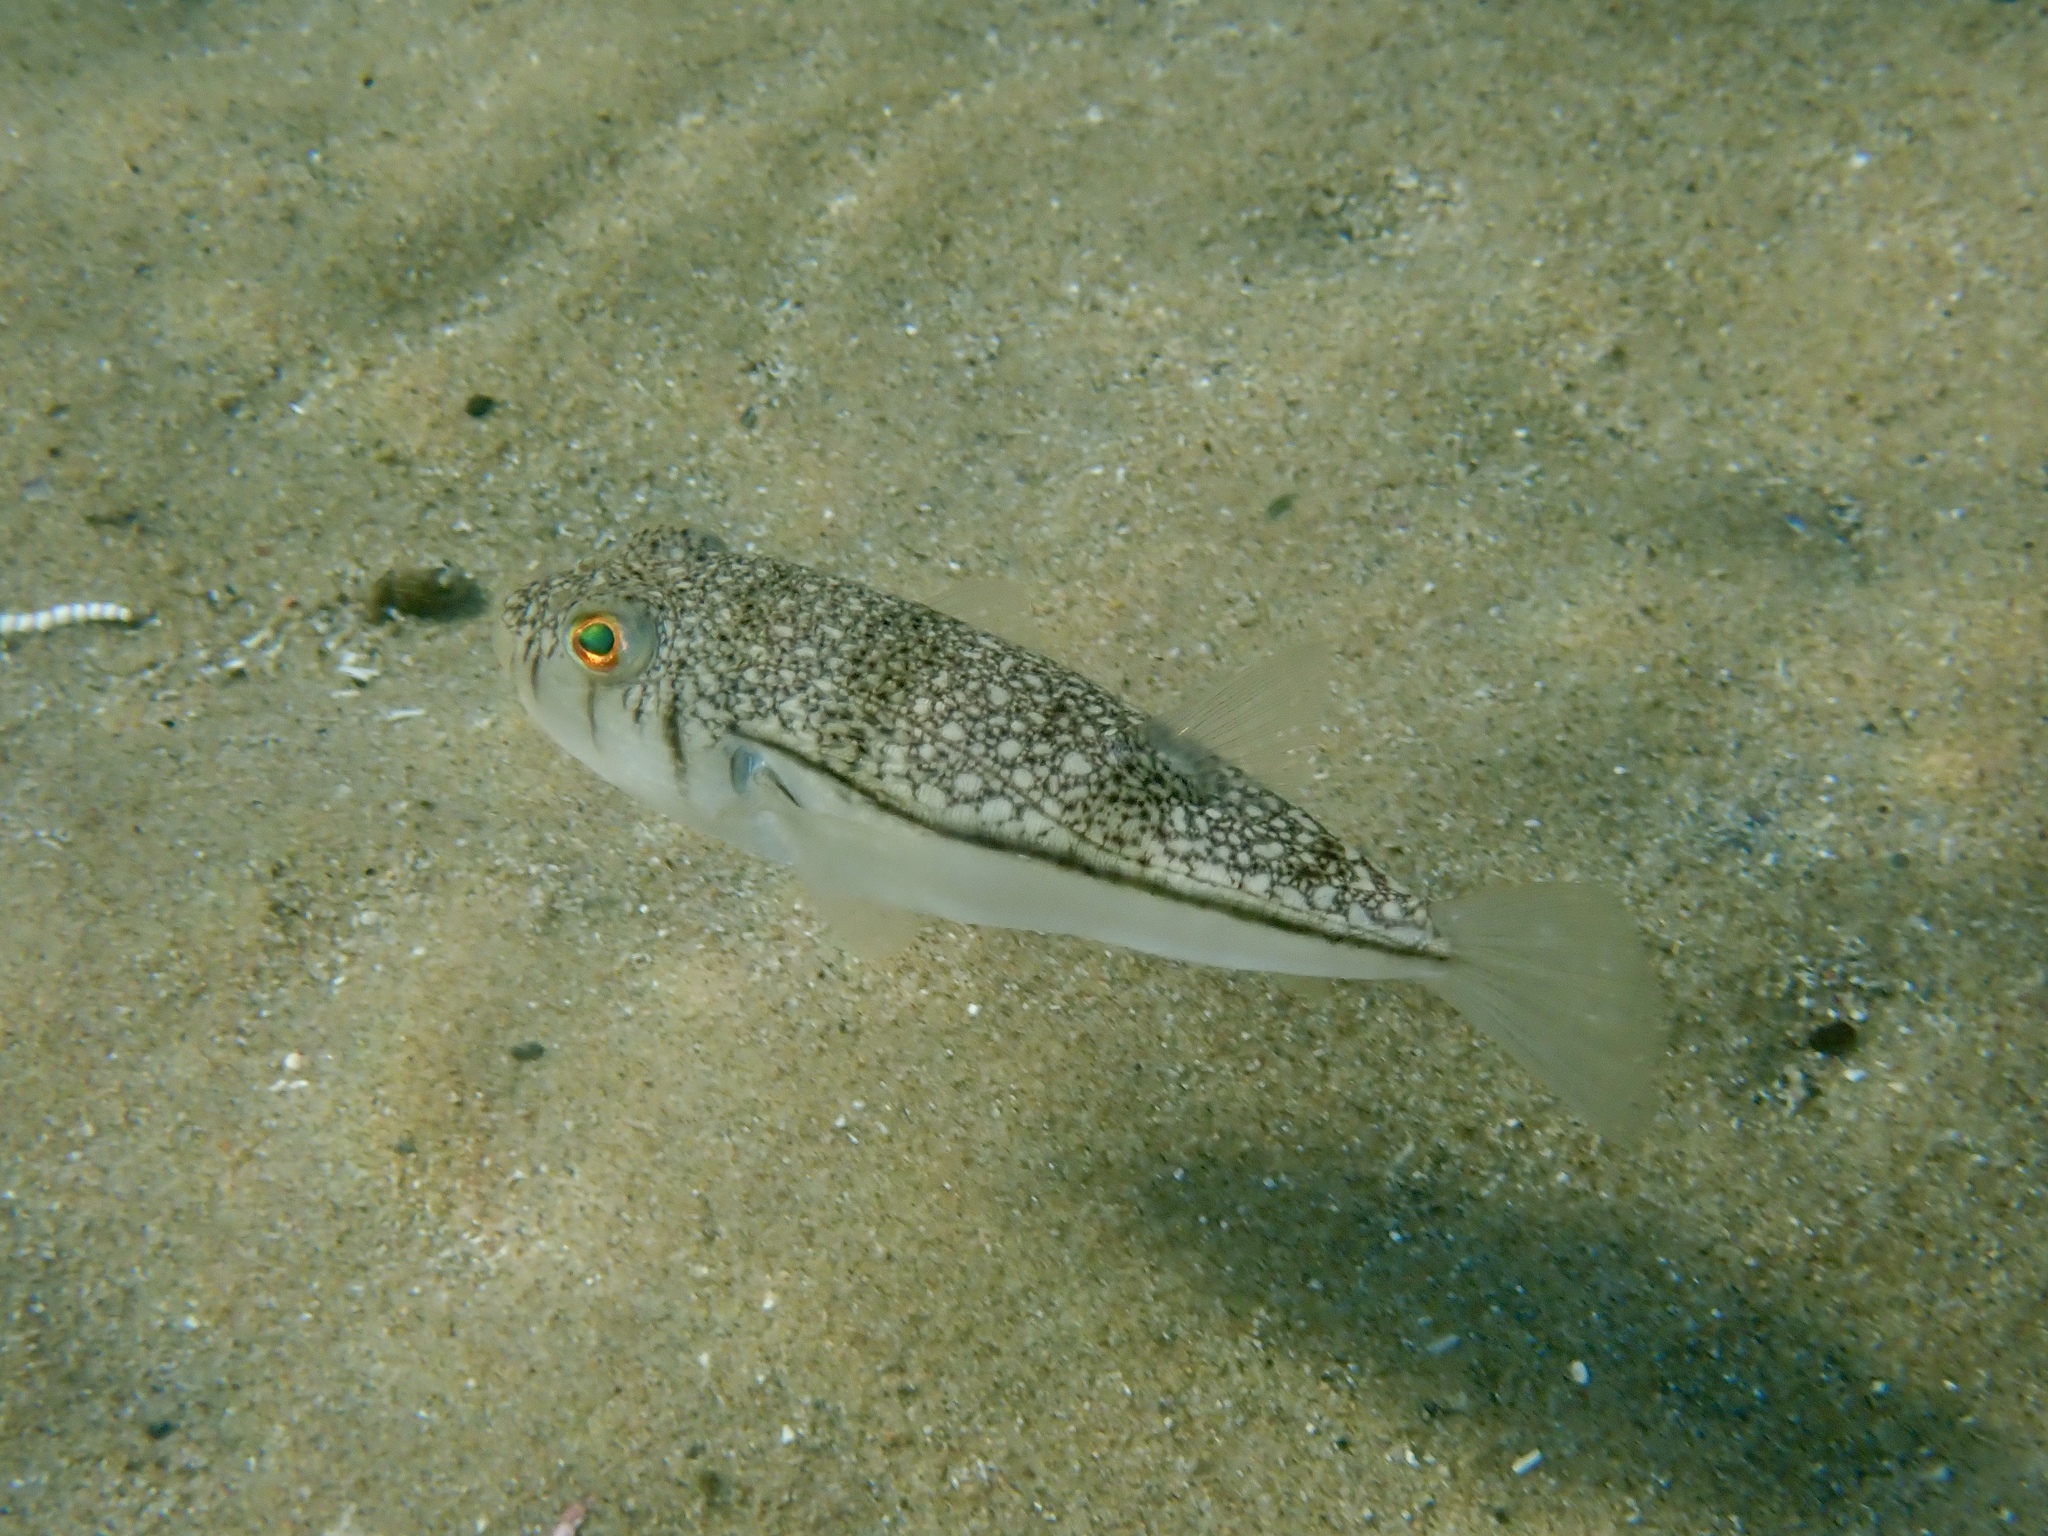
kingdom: Animalia
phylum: Chordata
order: Tetraodontiformes
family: Tetraodontidae
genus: Torquigener
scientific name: Torquigener pleurogramma
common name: Banded toadfish
